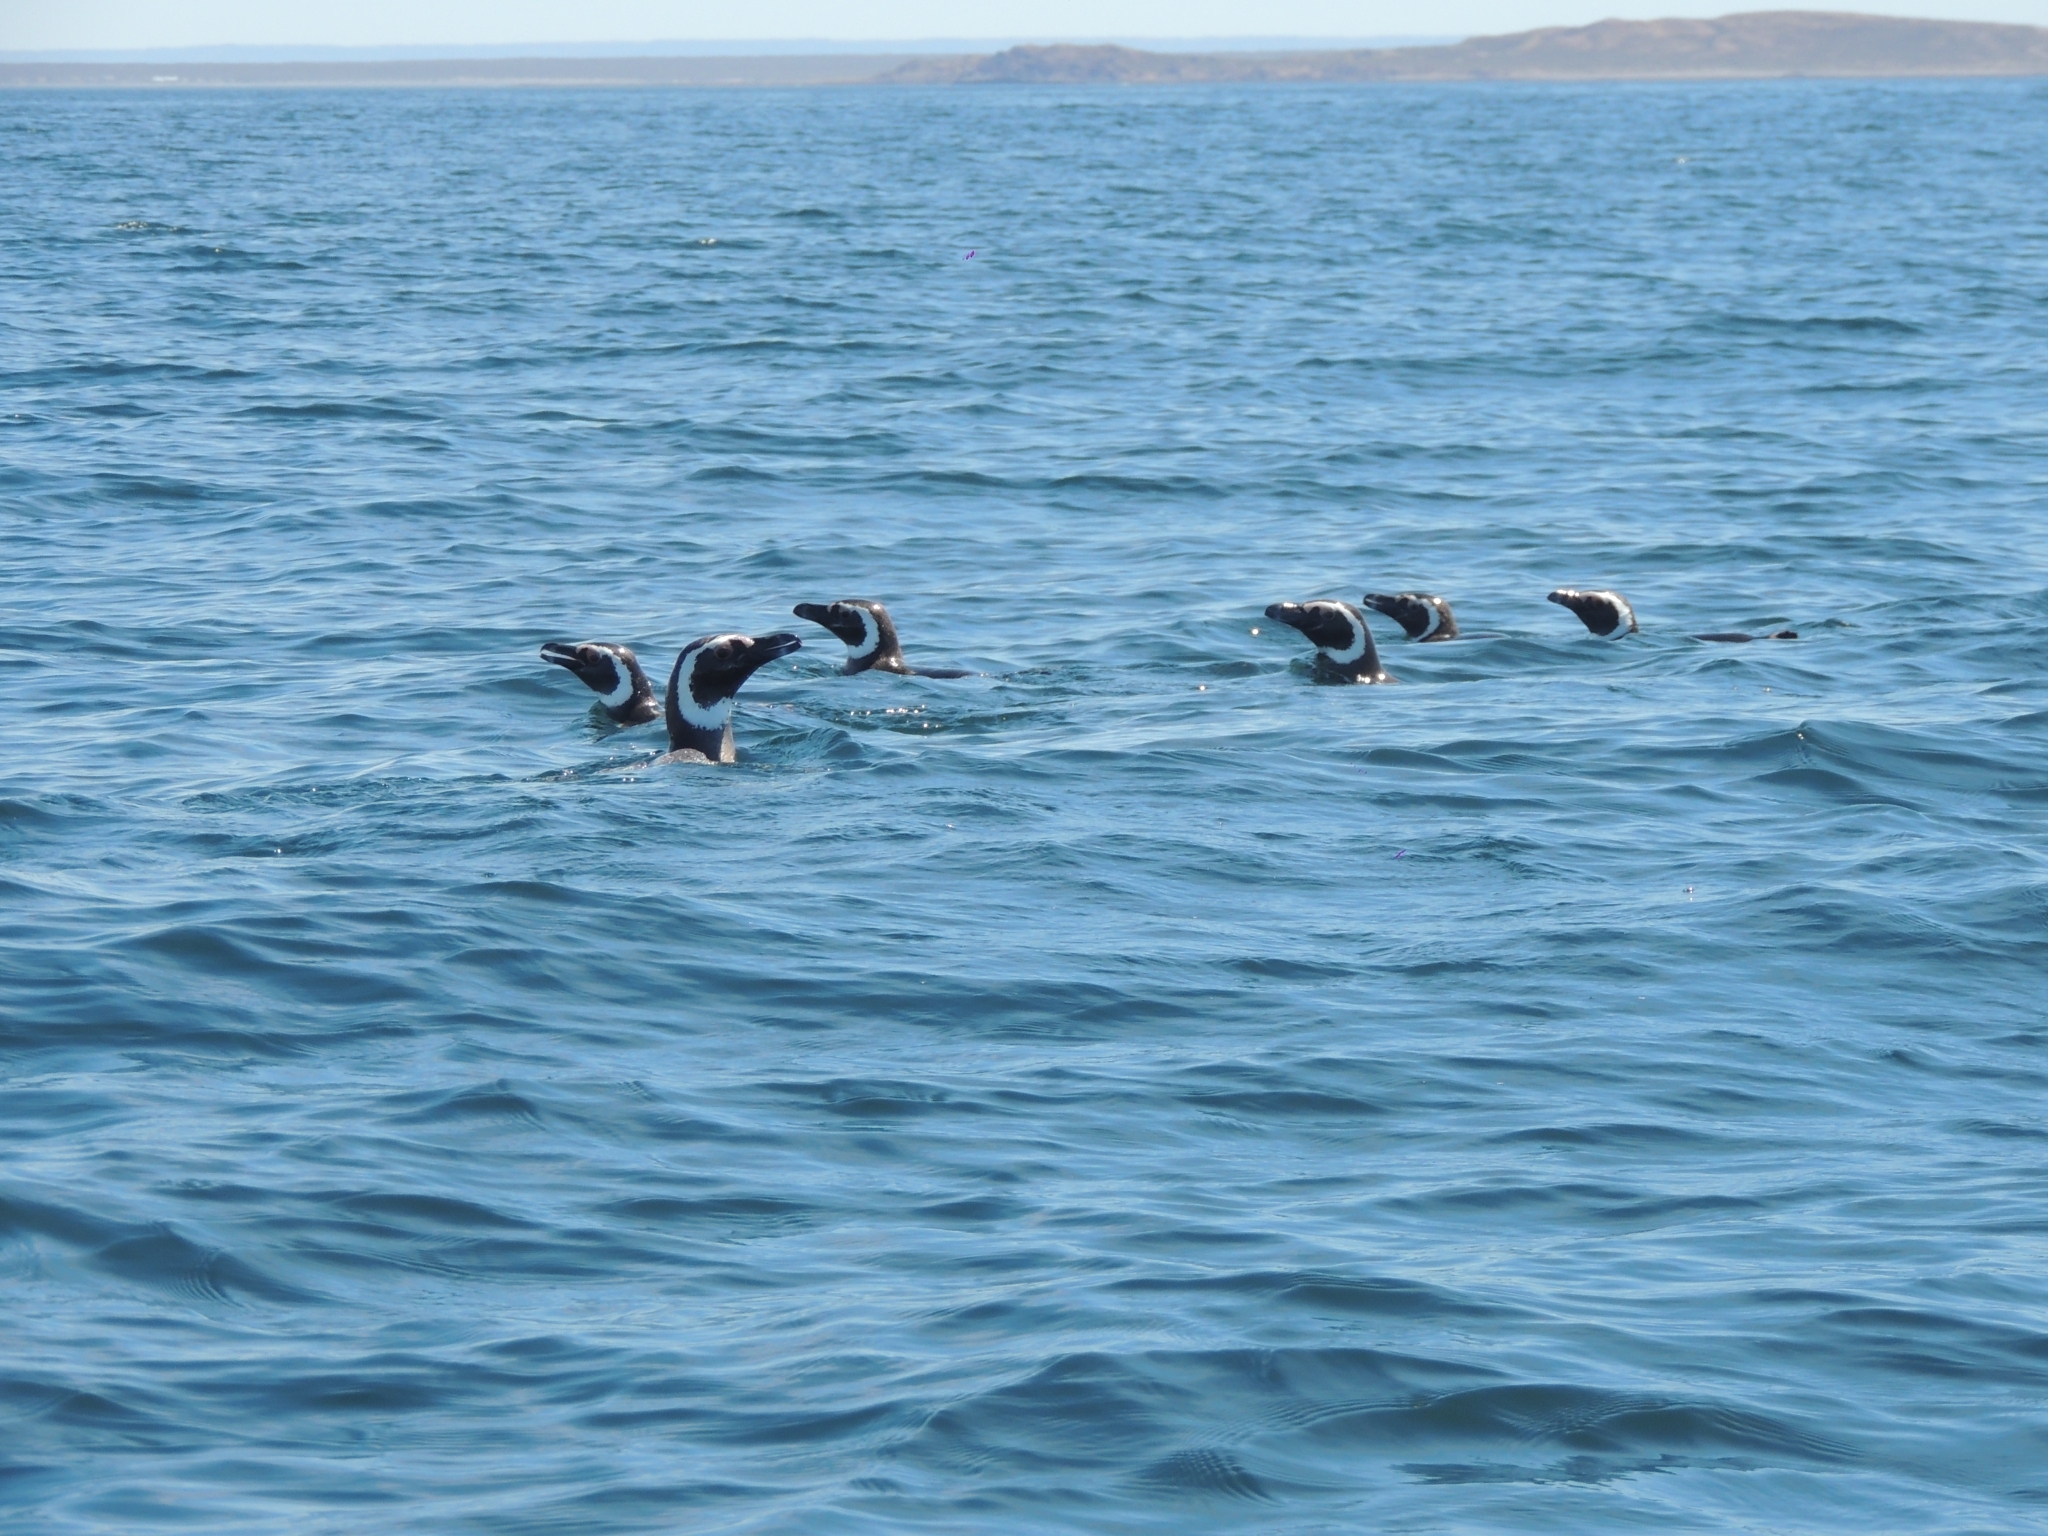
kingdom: Animalia
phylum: Chordata
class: Aves
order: Sphenisciformes
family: Spheniscidae
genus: Spheniscus
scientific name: Spheniscus magellanicus
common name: Magellanic penguin
